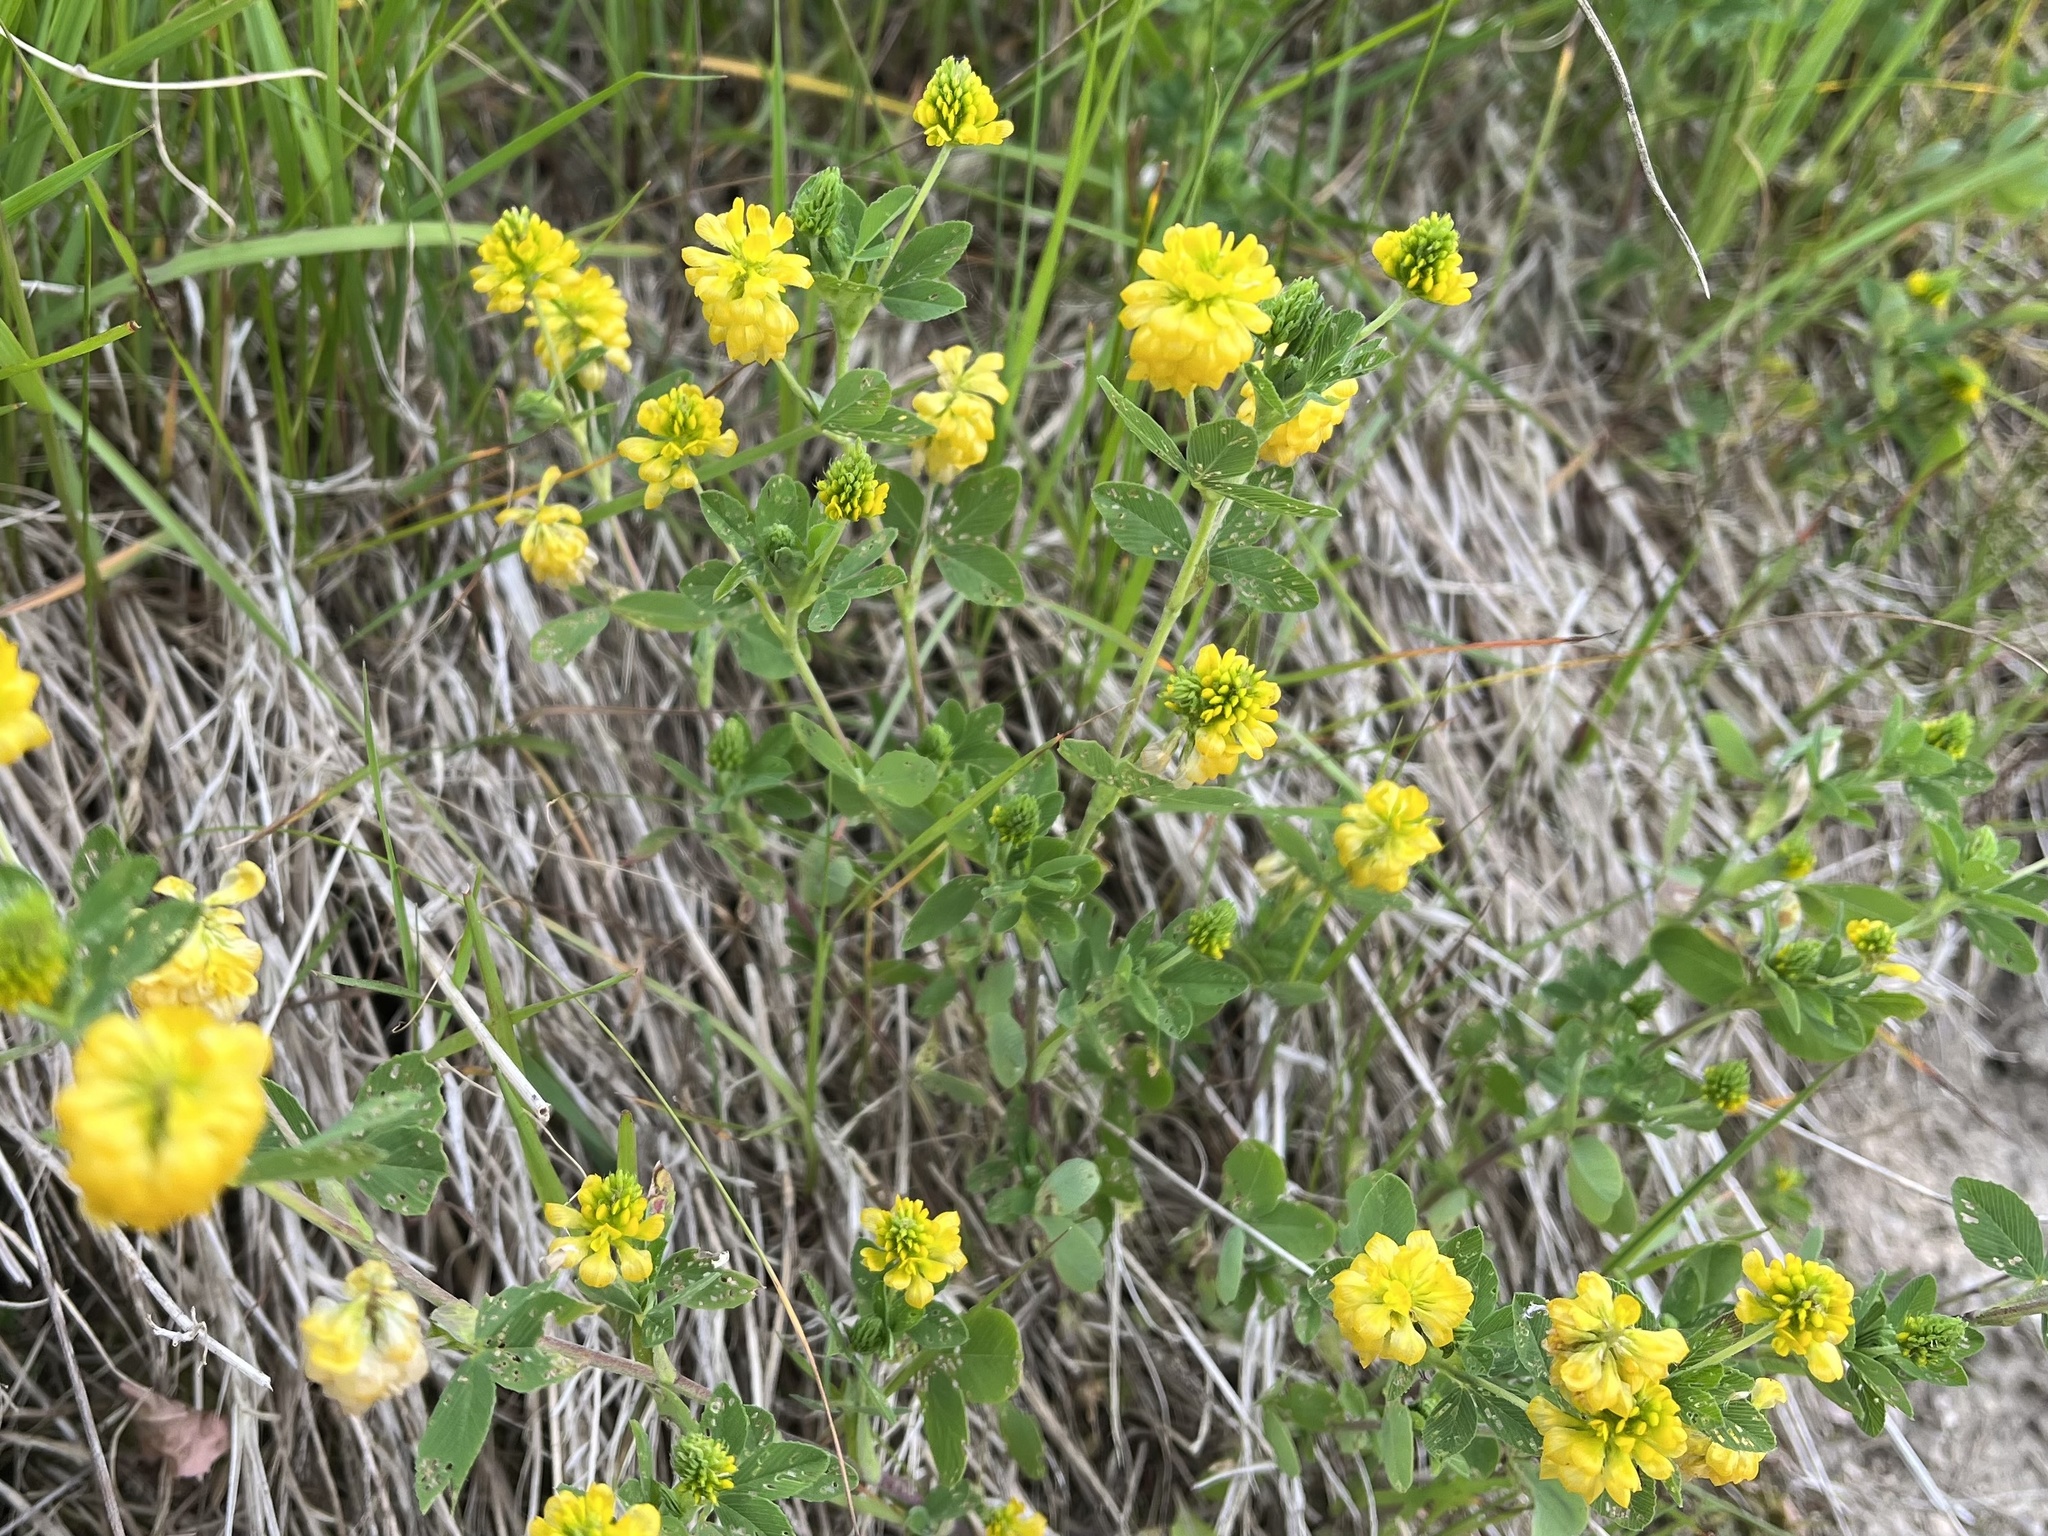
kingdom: Plantae
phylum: Tracheophyta
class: Magnoliopsida
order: Fabales
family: Fabaceae
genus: Trifolium
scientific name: Trifolium campestre
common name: Field clover
